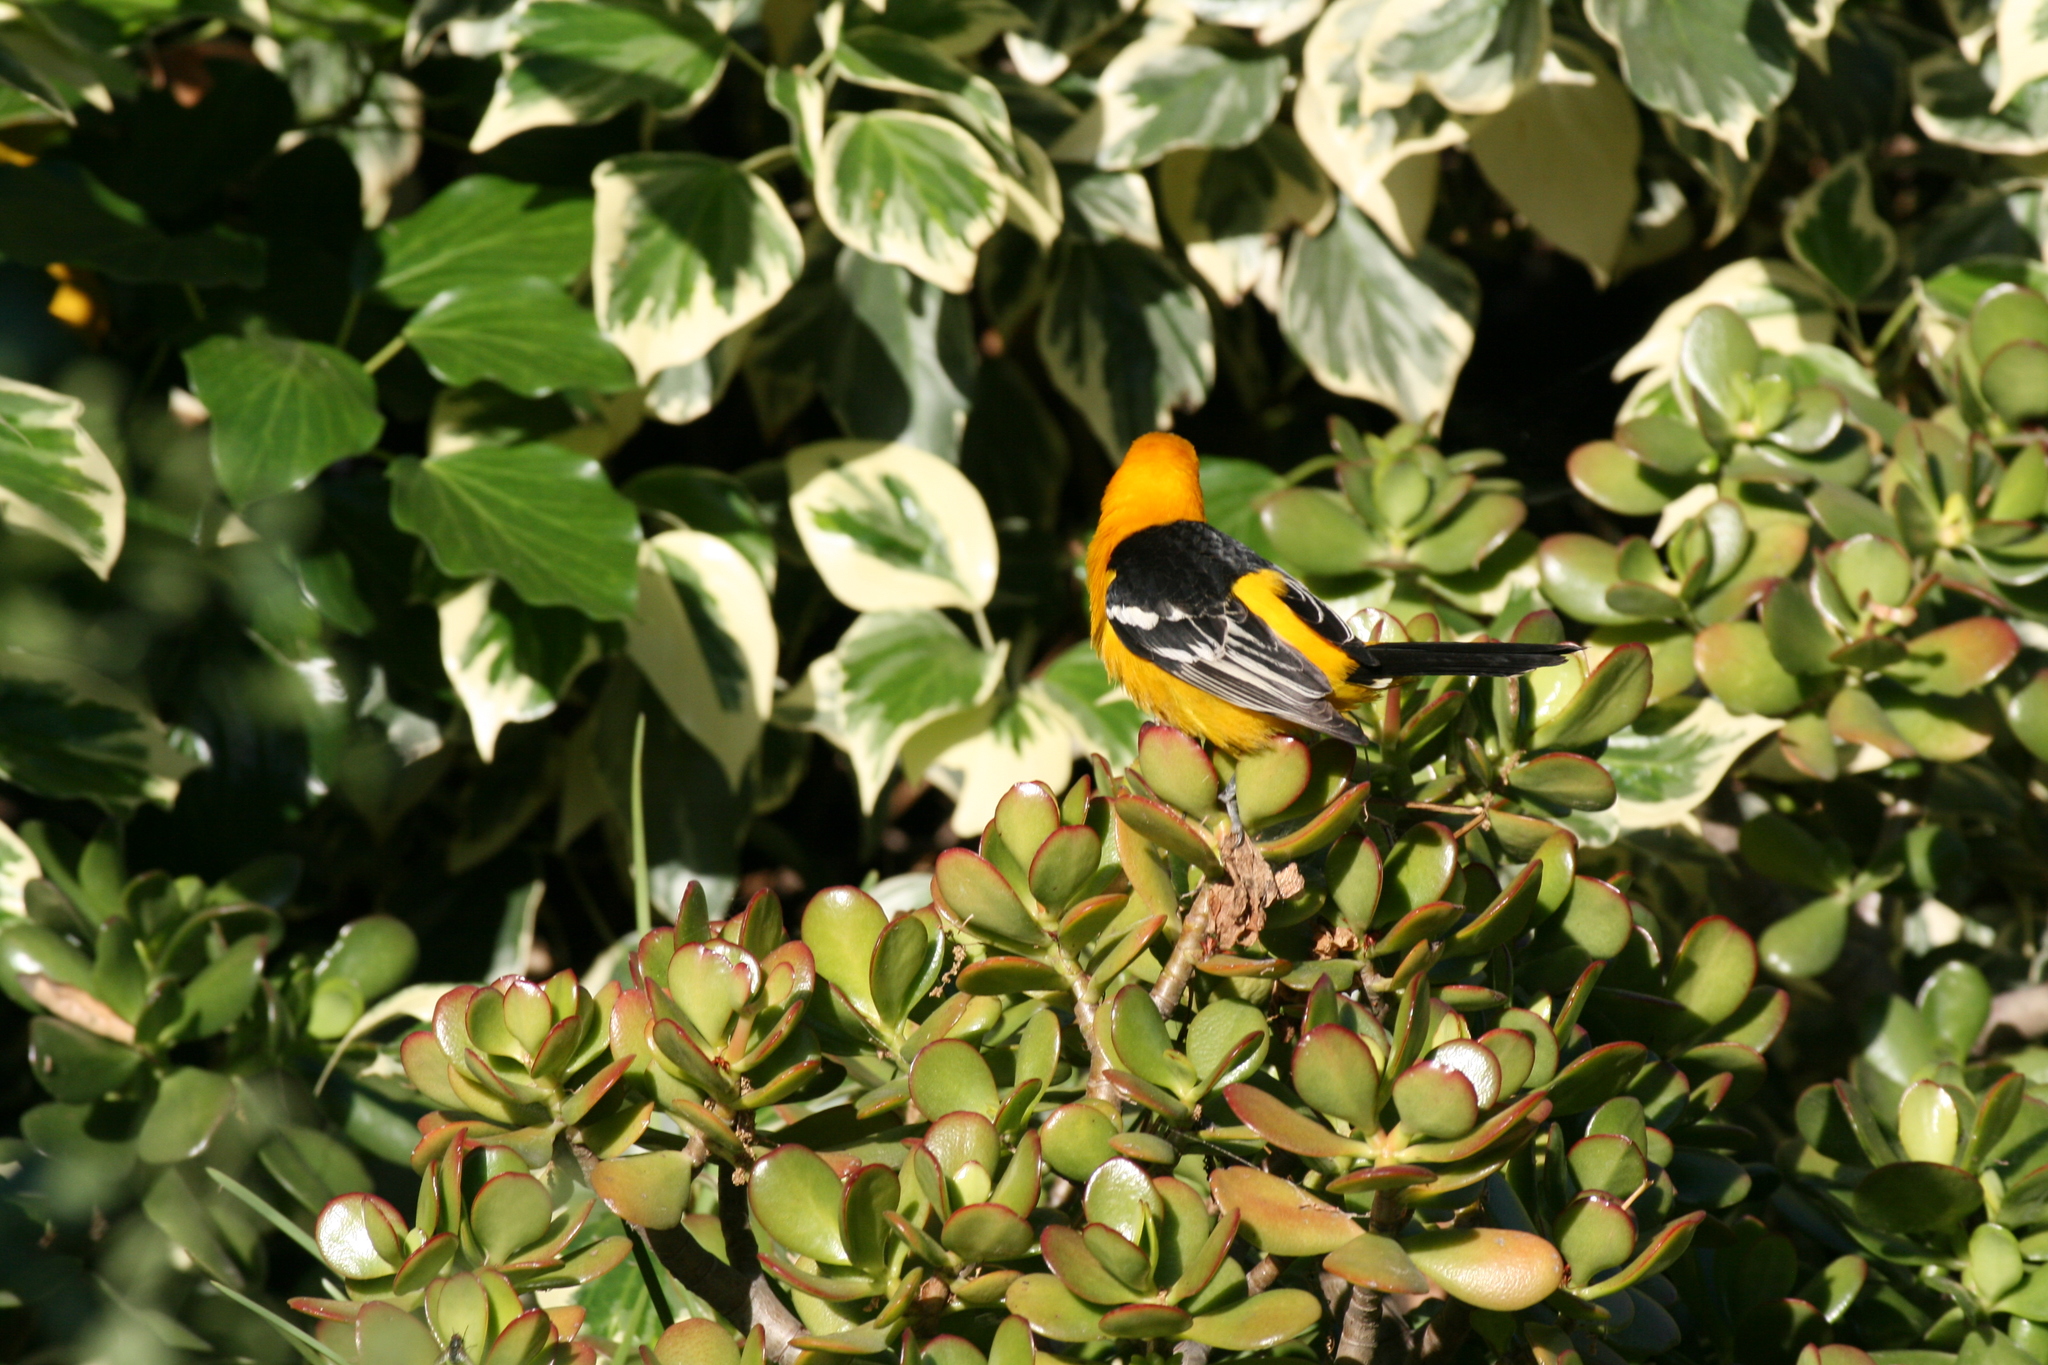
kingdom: Animalia
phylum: Chordata
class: Aves
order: Passeriformes
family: Icteridae
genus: Icterus
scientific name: Icterus cucullatus
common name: Hooded oriole
